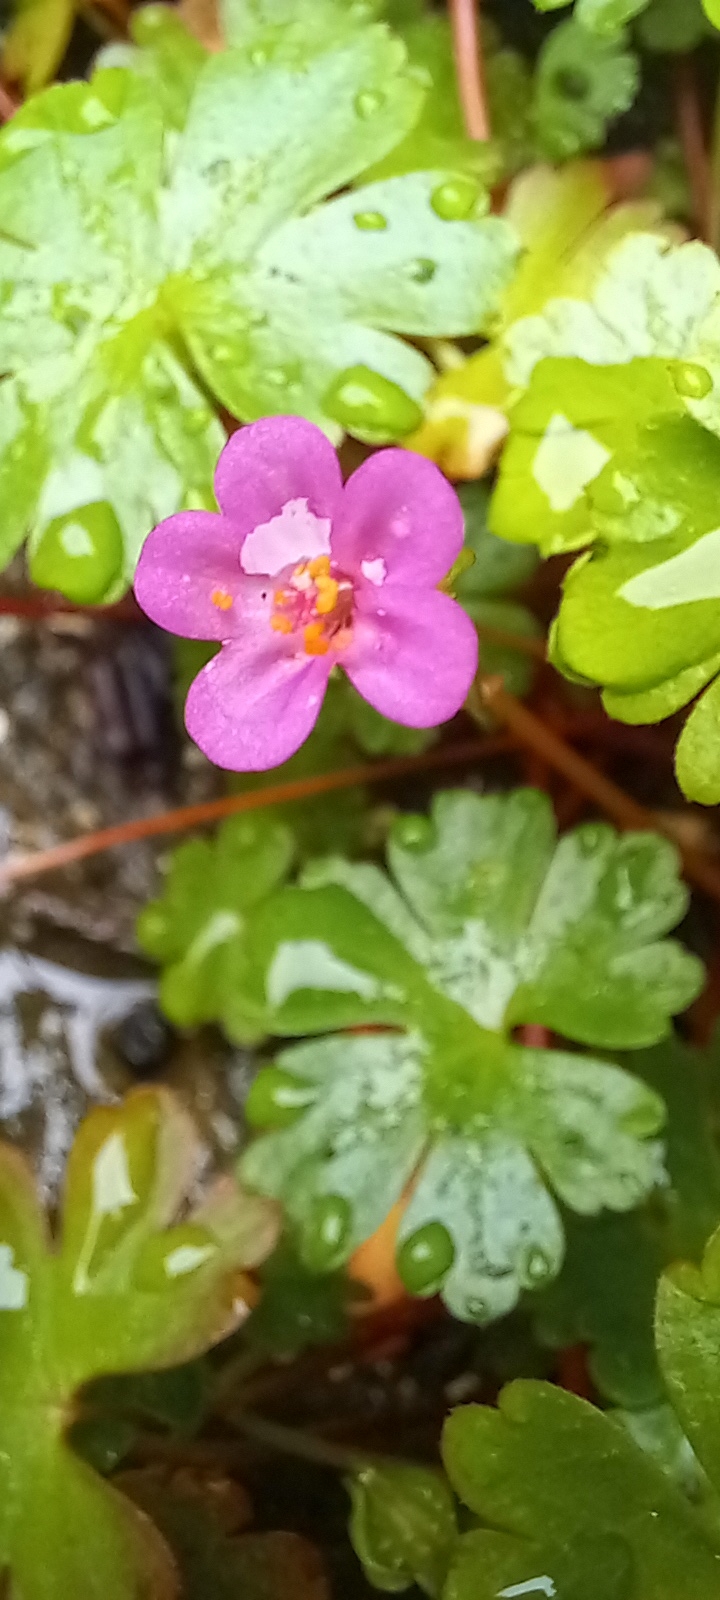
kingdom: Plantae
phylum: Tracheophyta
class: Magnoliopsida
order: Geraniales
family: Geraniaceae
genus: Geranium
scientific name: Geranium lucidum
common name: Shining crane's-bill
